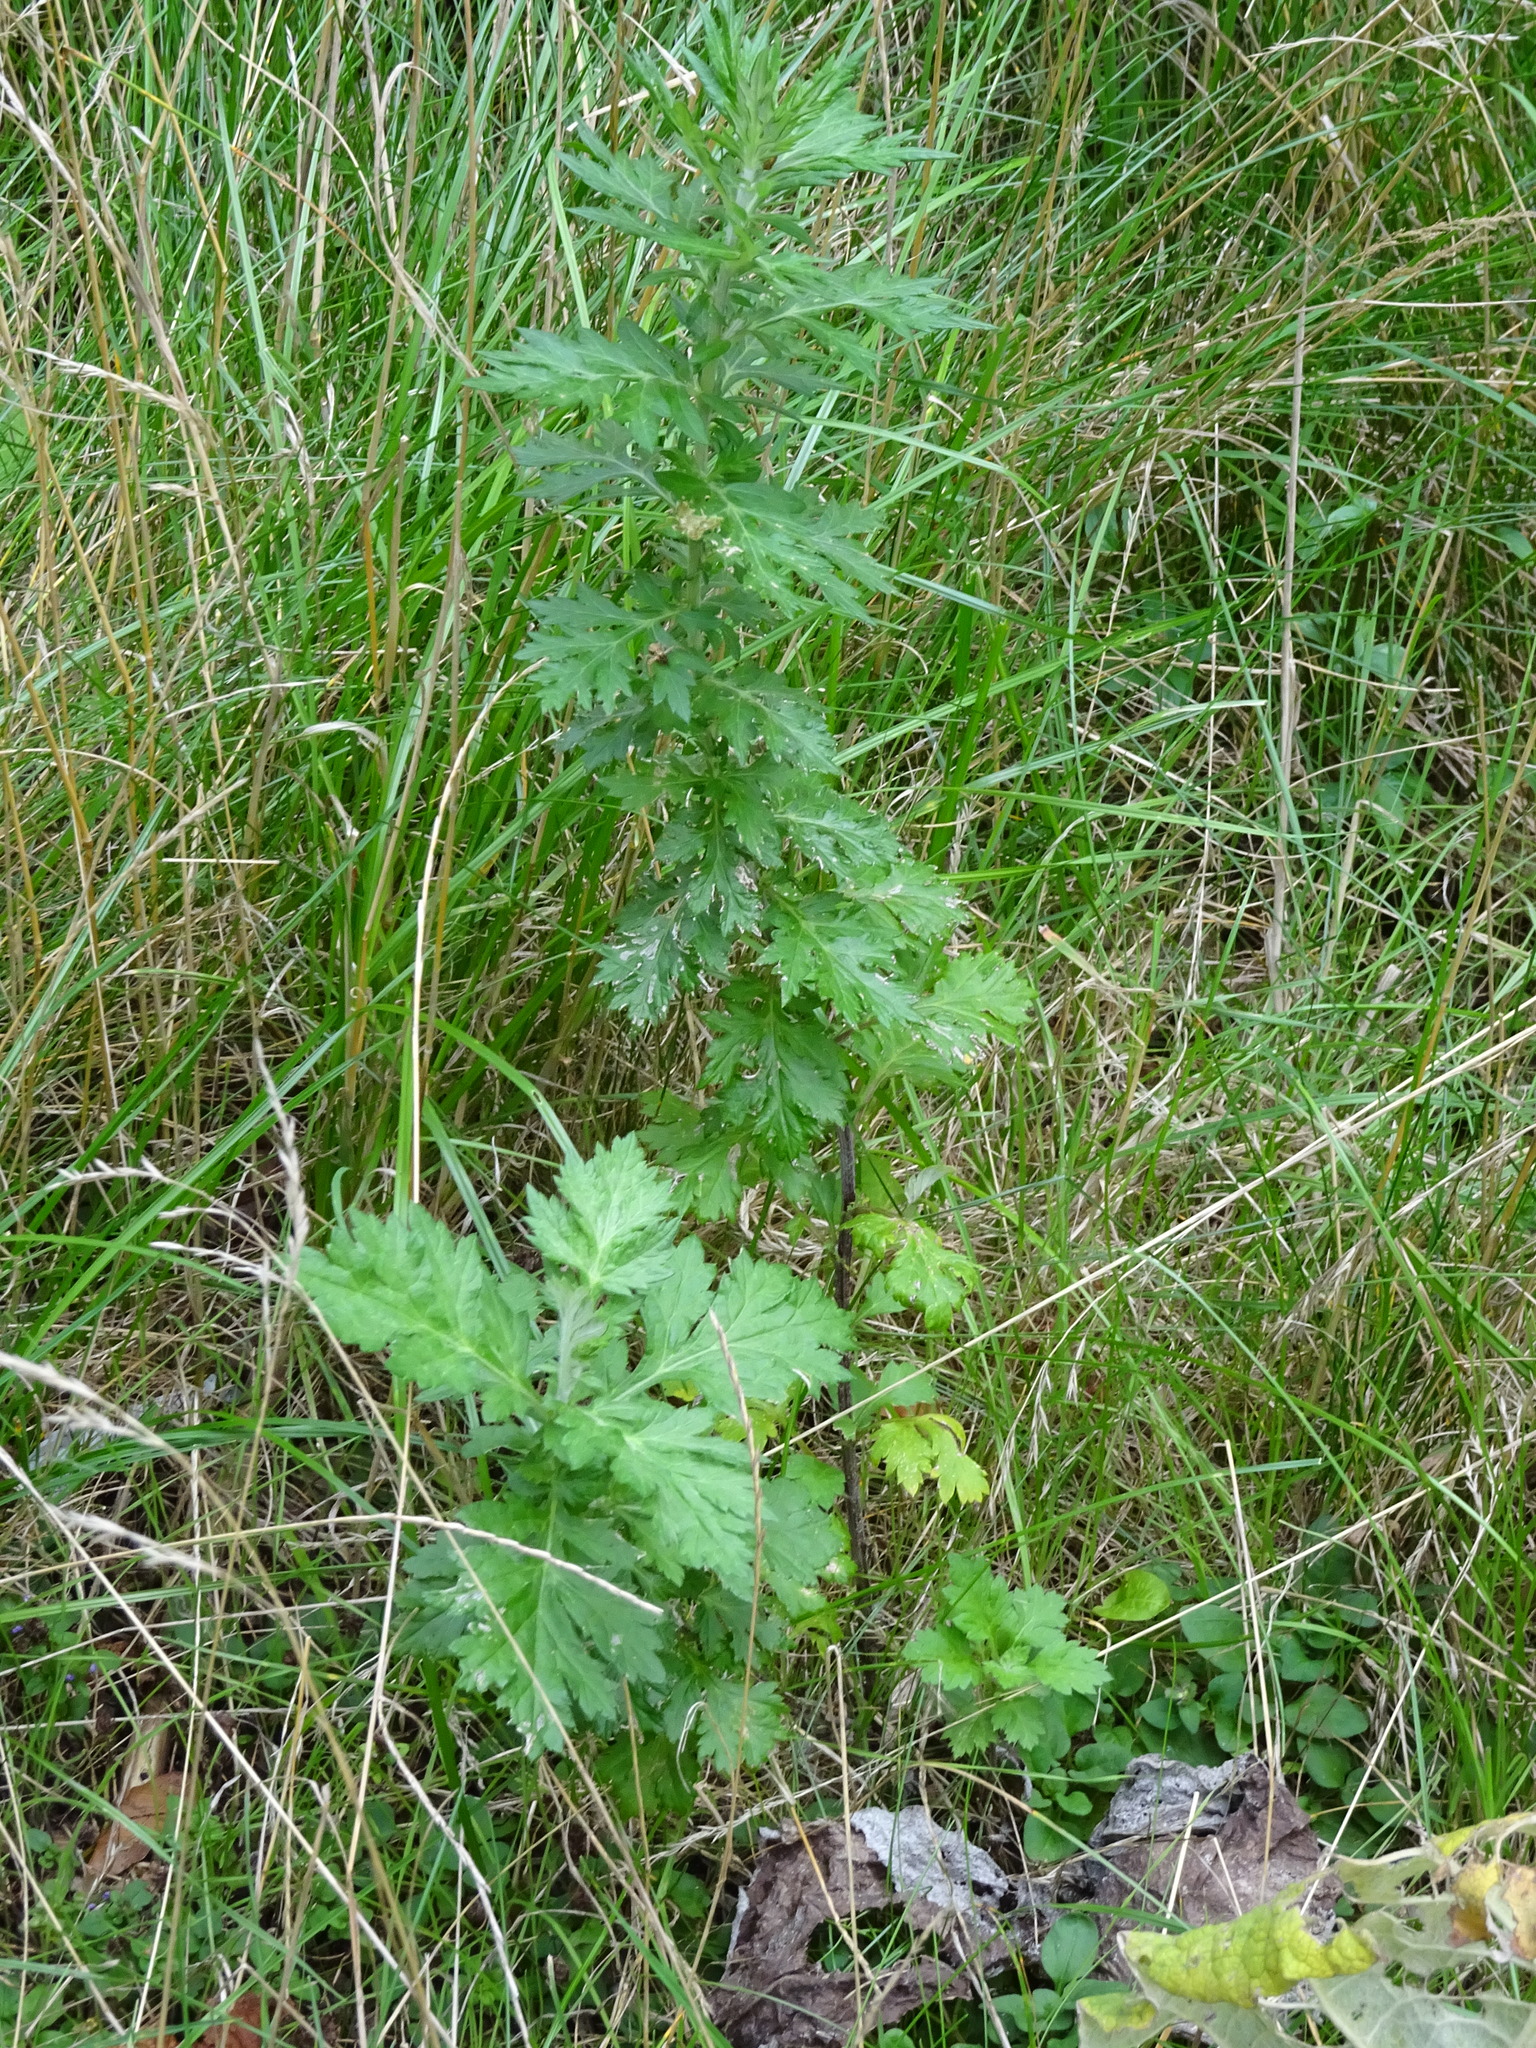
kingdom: Plantae
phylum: Tracheophyta
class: Magnoliopsida
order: Asterales
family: Asteraceae
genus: Artemisia
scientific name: Artemisia vulgaris
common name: Mugwort
